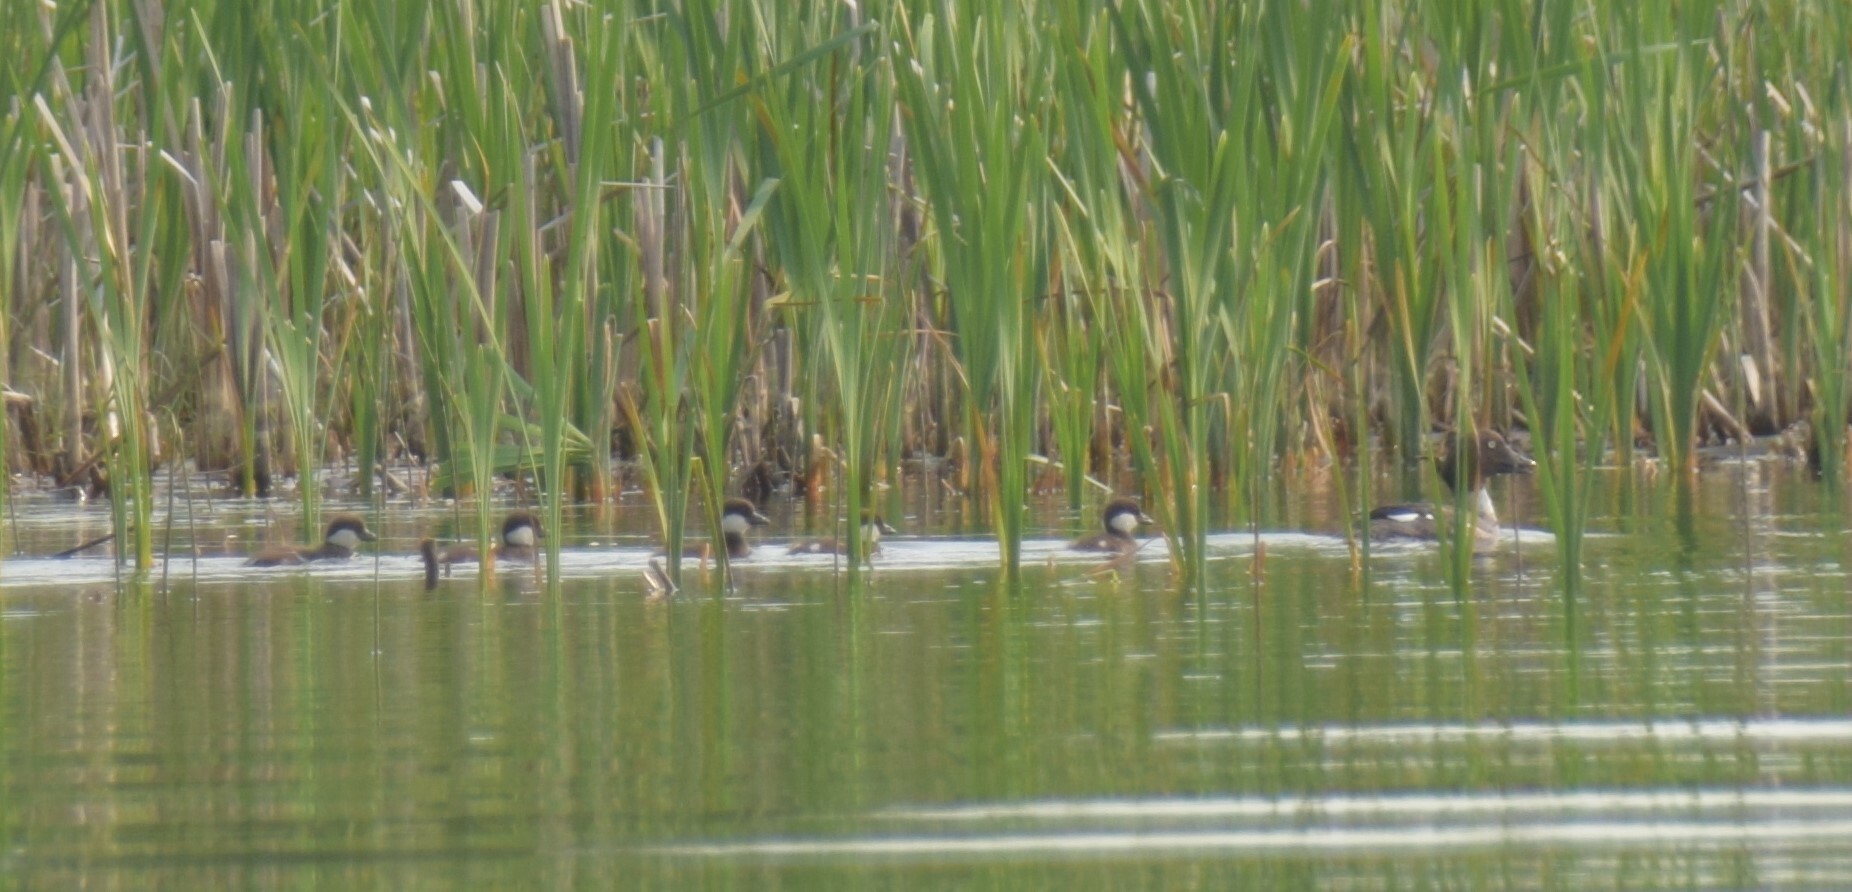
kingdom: Animalia
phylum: Chordata
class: Aves
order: Anseriformes
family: Anatidae
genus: Mergus
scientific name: Mergus merganser
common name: Common merganser
